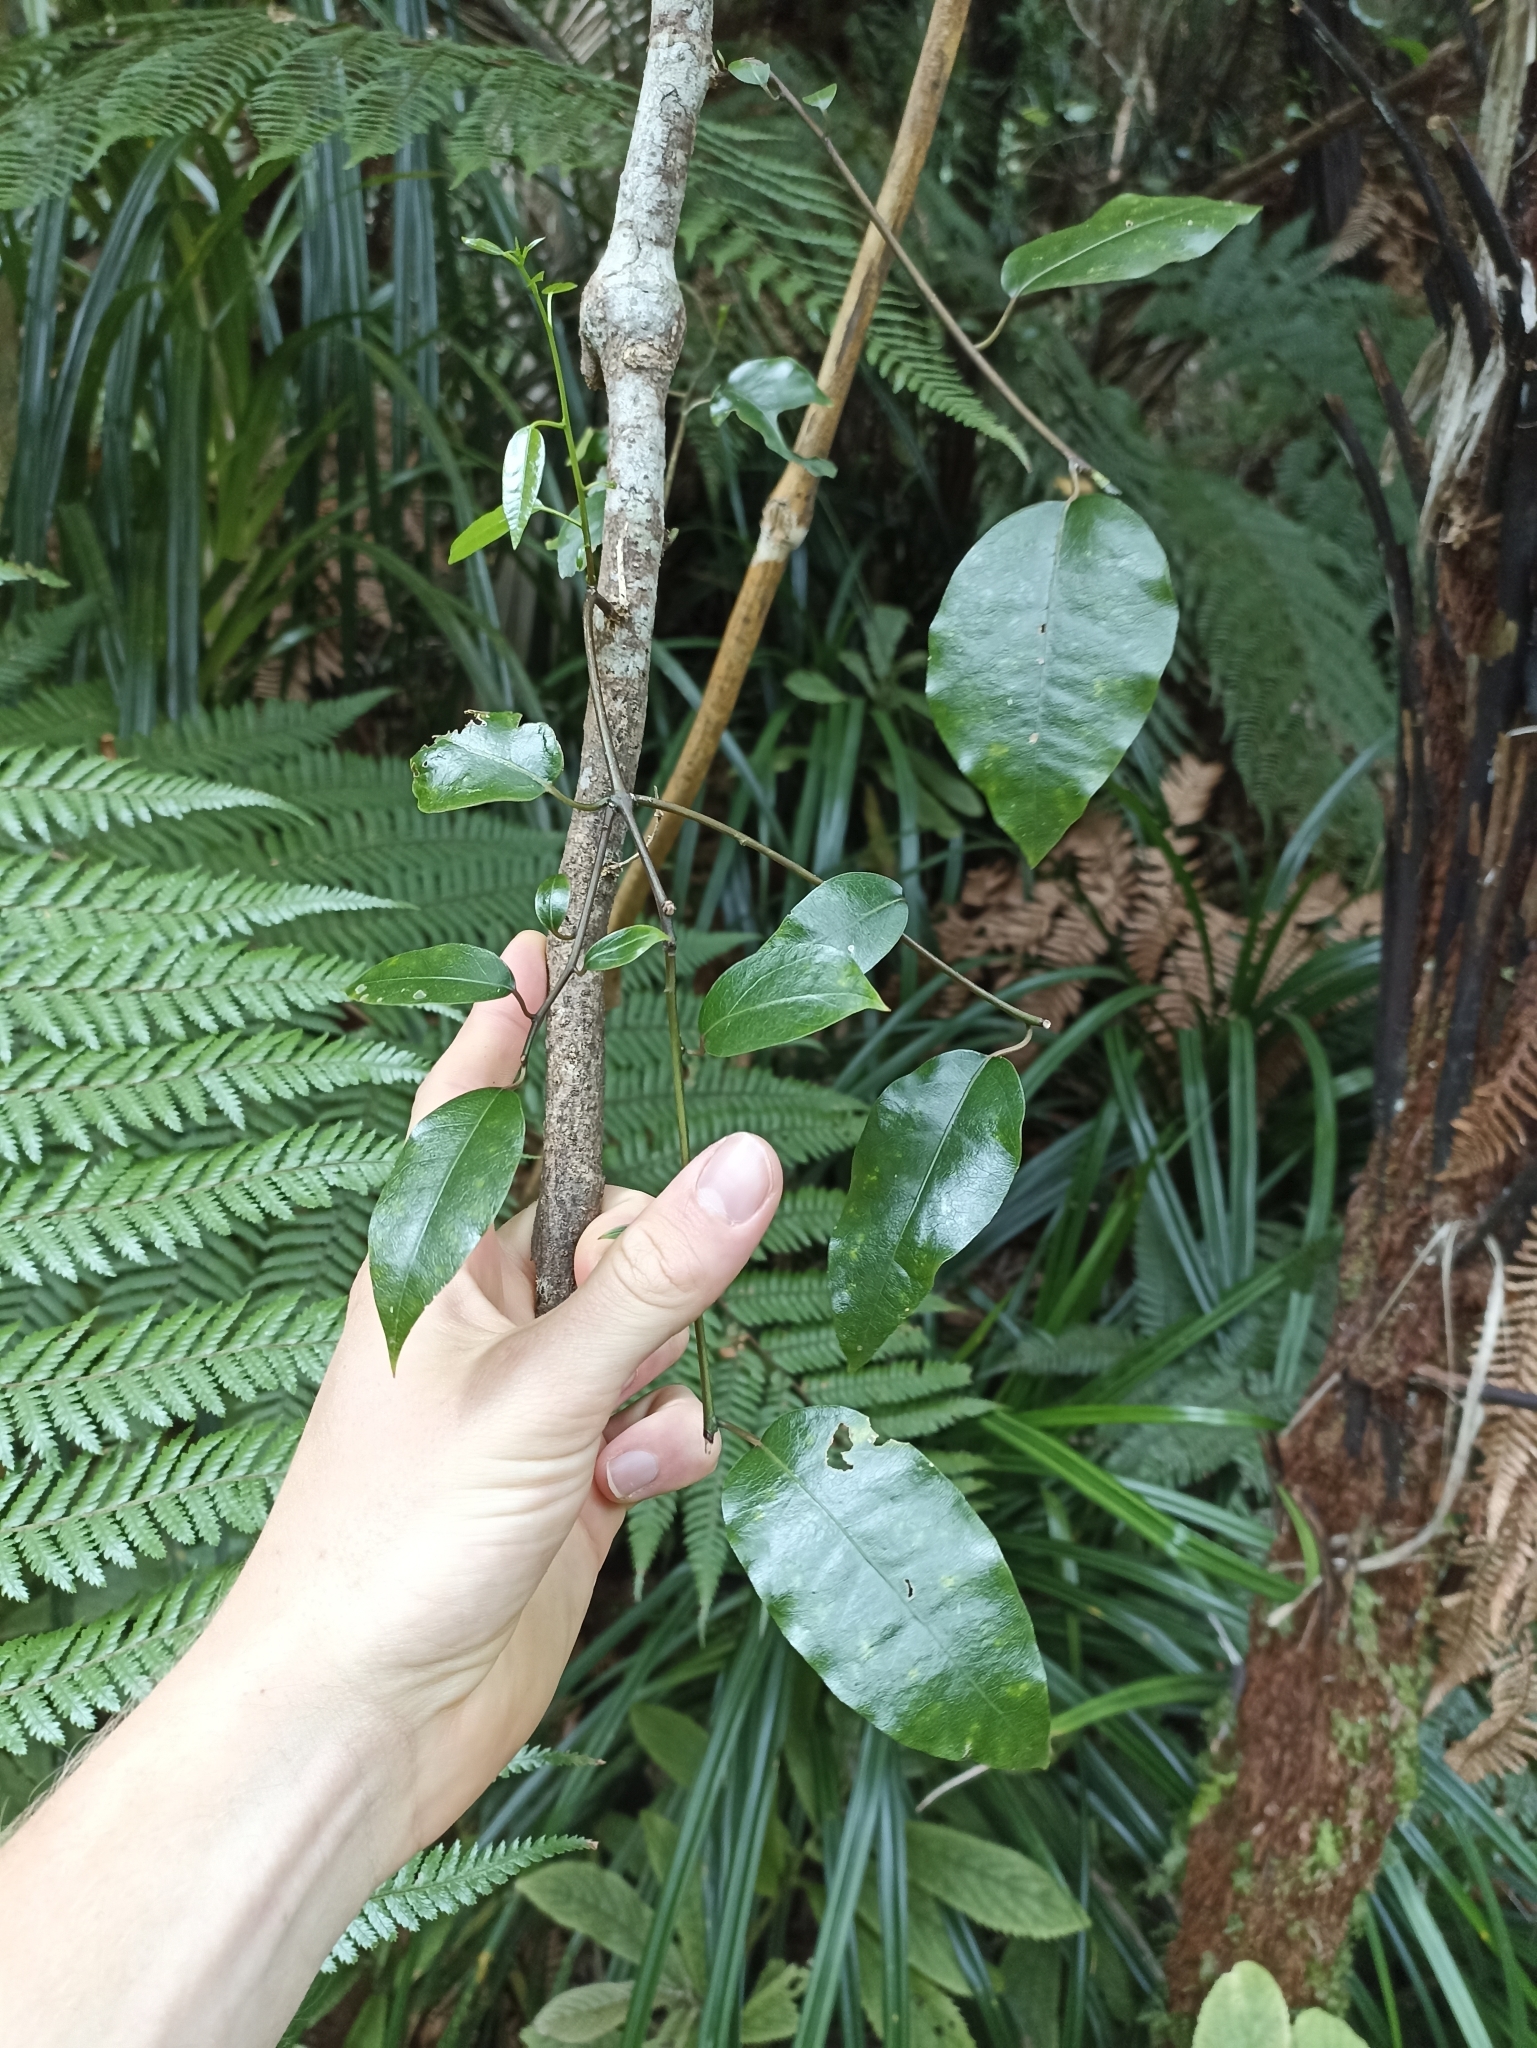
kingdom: Plantae
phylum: Tracheophyta
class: Magnoliopsida
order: Malpighiales
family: Passifloraceae
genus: Passiflora
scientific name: Passiflora tetrandra
